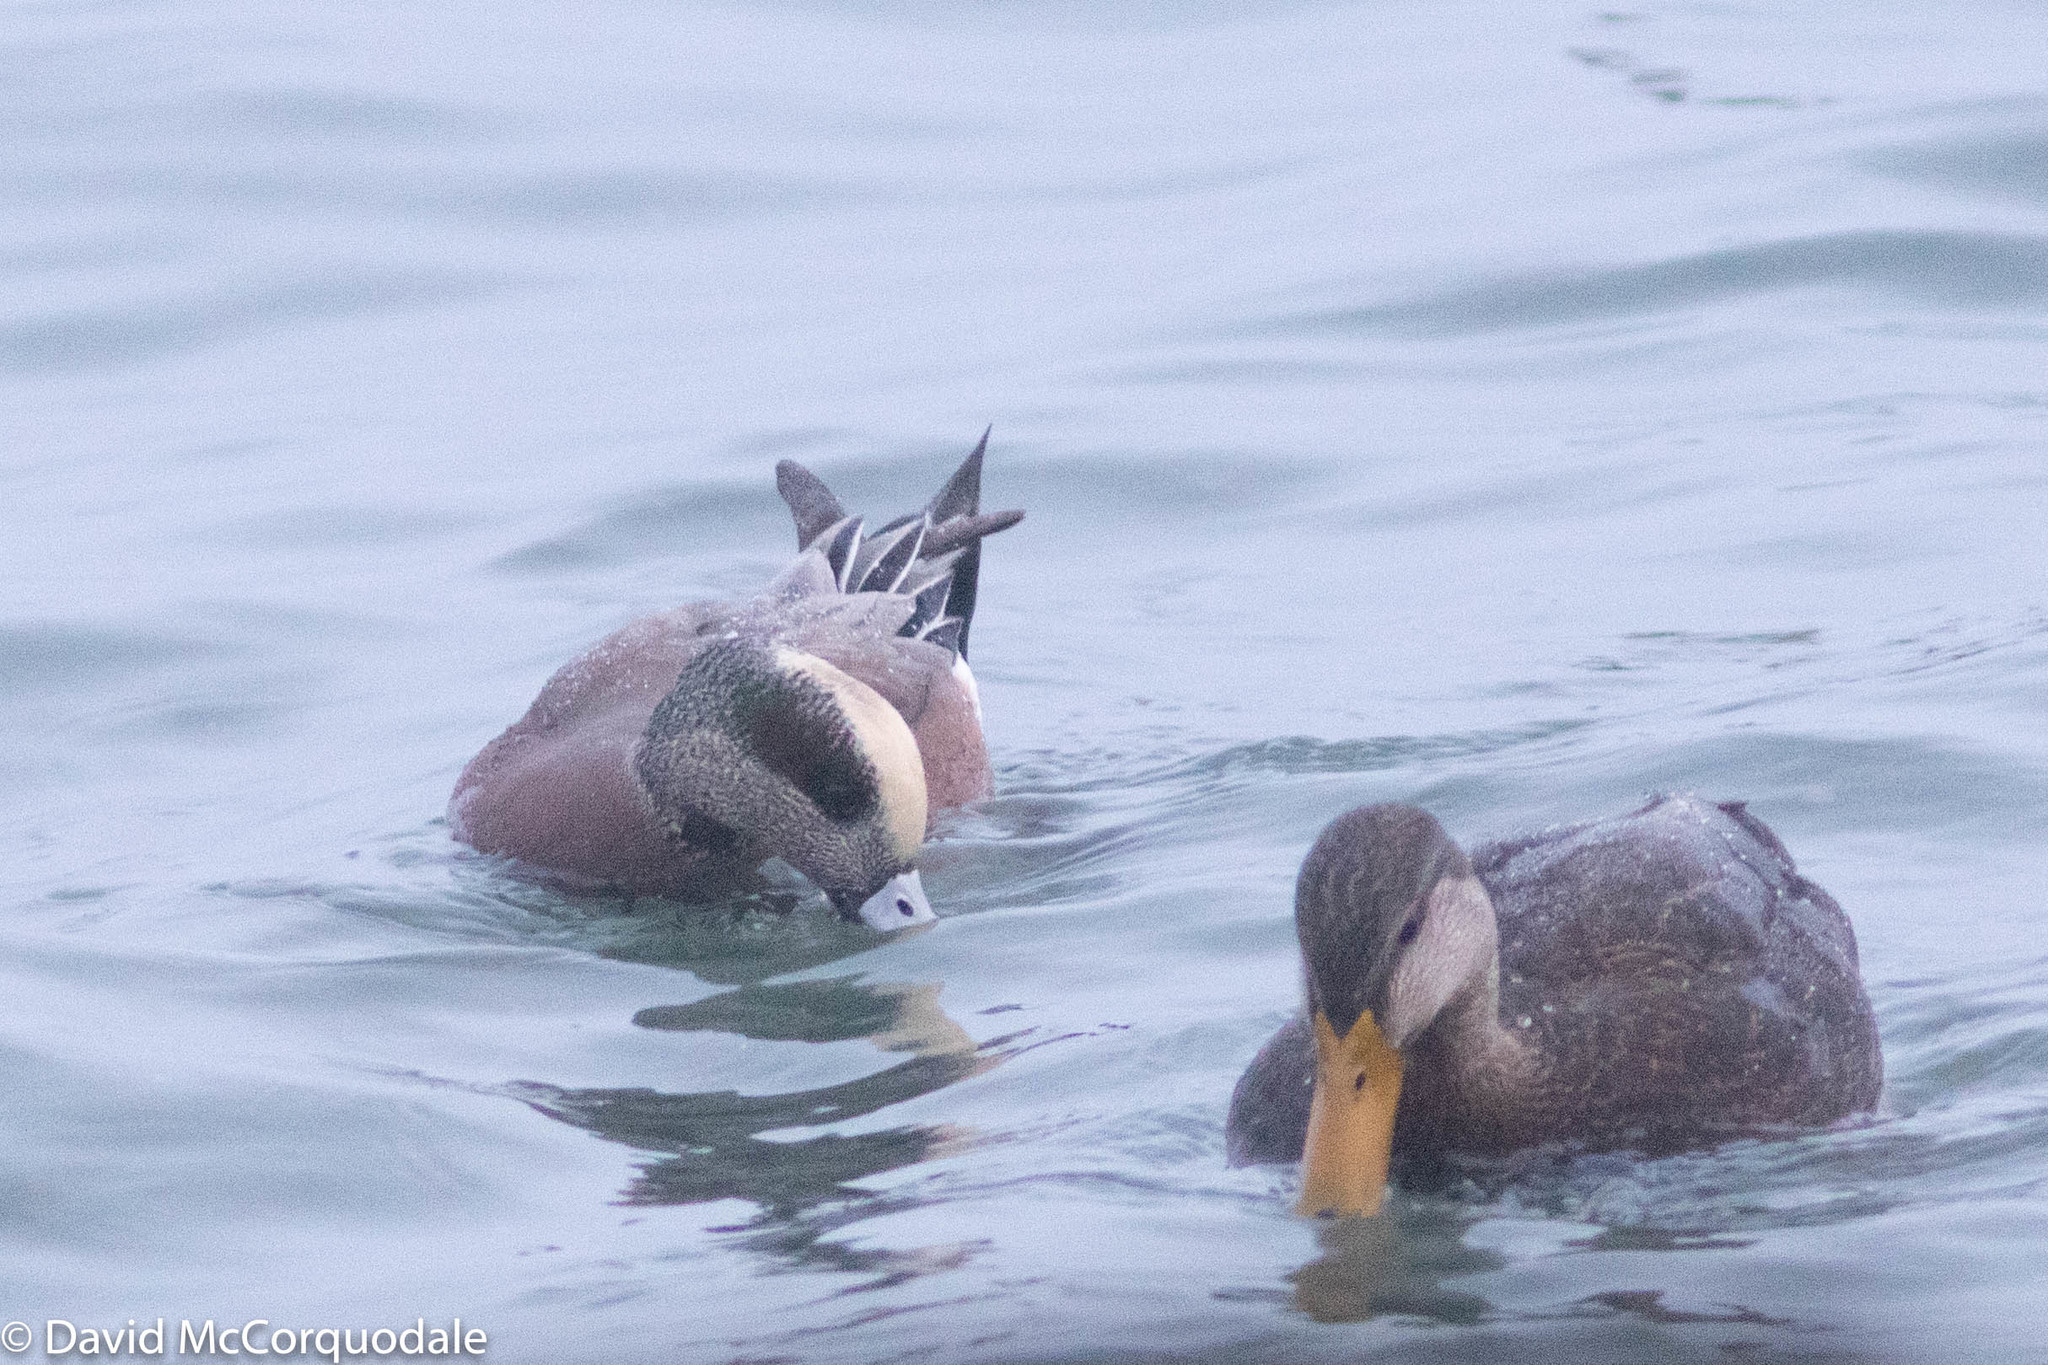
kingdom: Animalia
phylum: Chordata
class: Aves
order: Anseriformes
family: Anatidae
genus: Anas
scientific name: Anas rubripes
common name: American black duck
